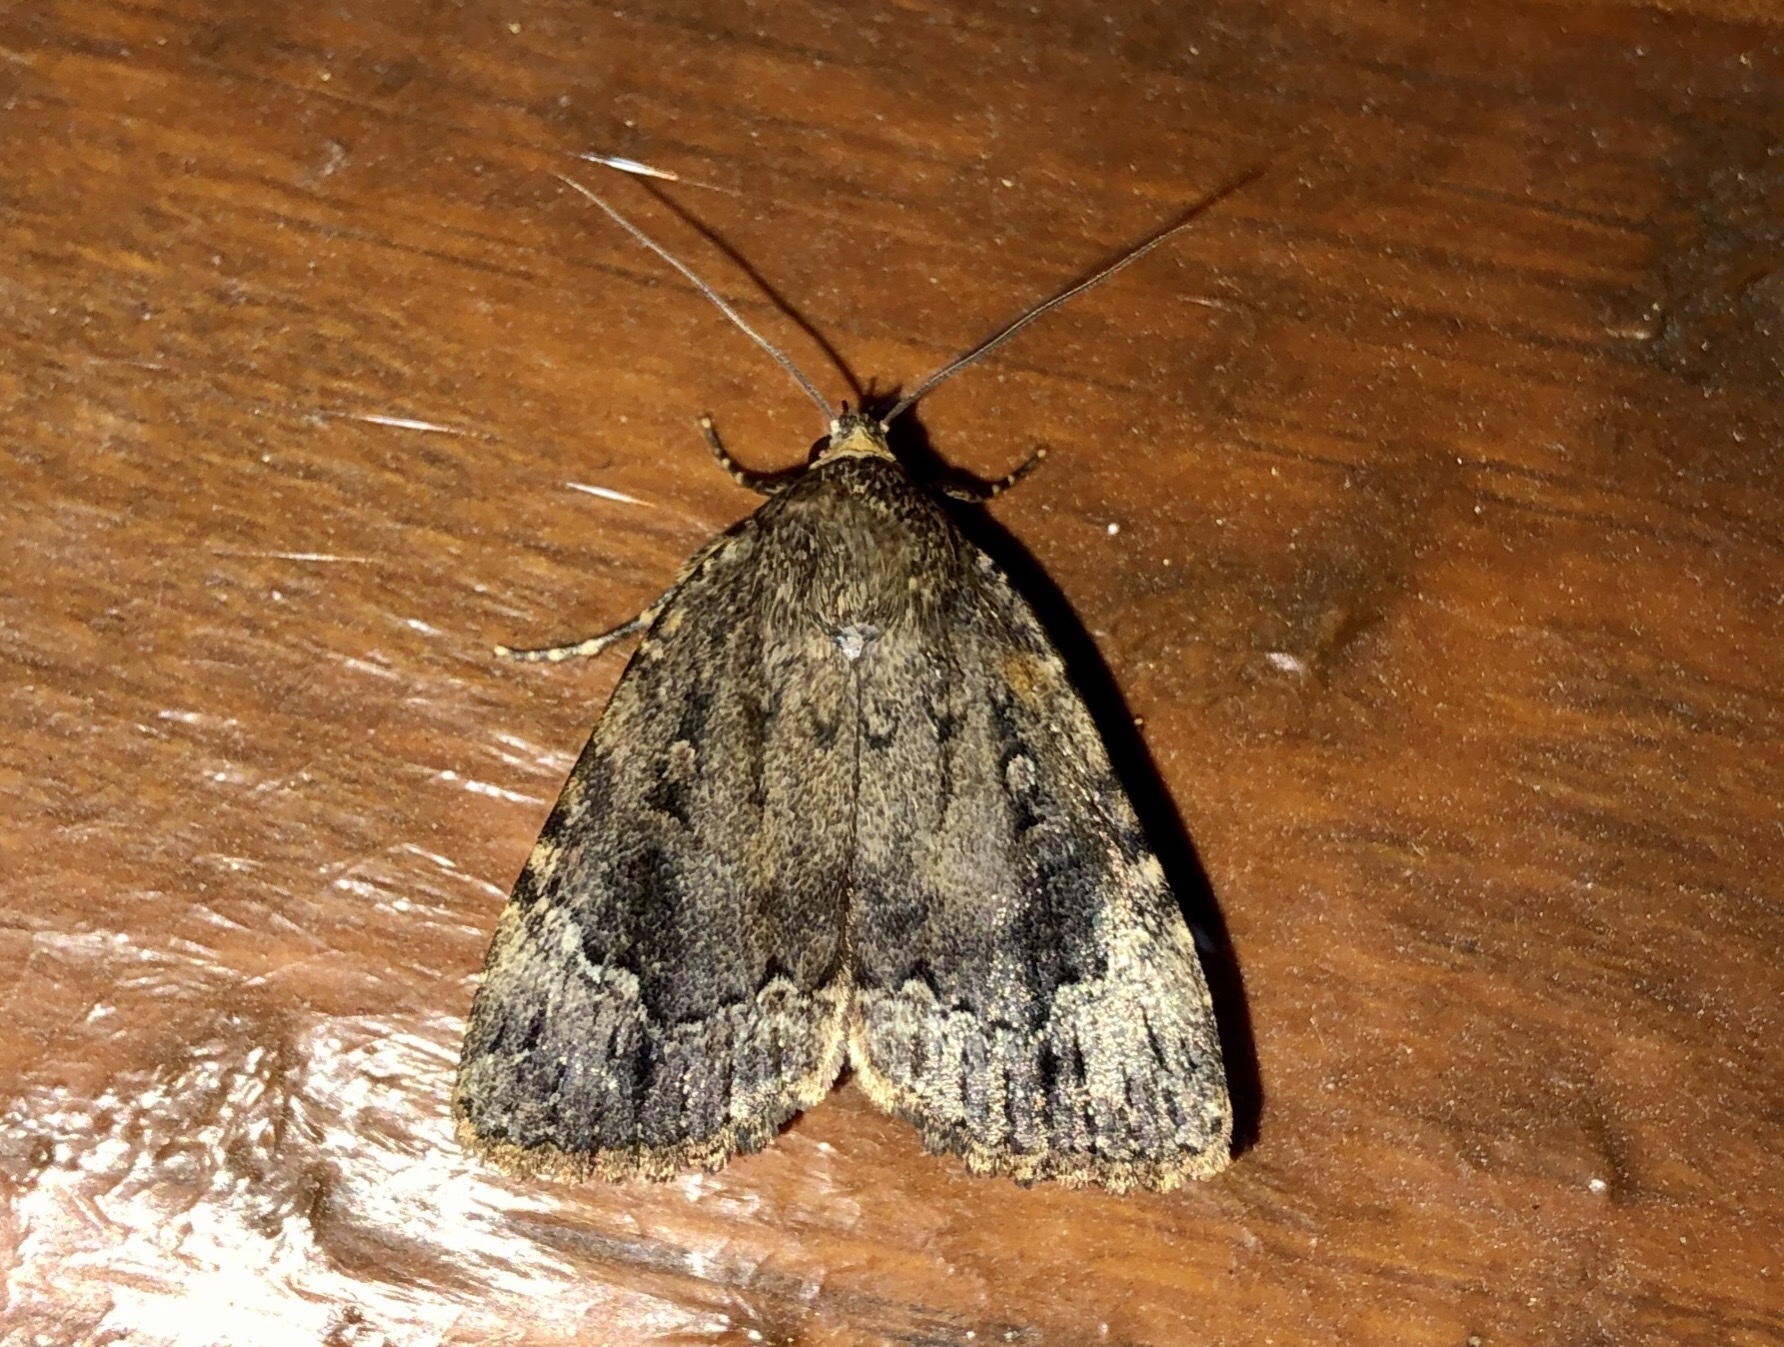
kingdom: Animalia
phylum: Arthropoda
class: Insecta
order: Lepidoptera
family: Noctuidae
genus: Amphipyra
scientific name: Amphipyra pyramidoides
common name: American copper underwing
